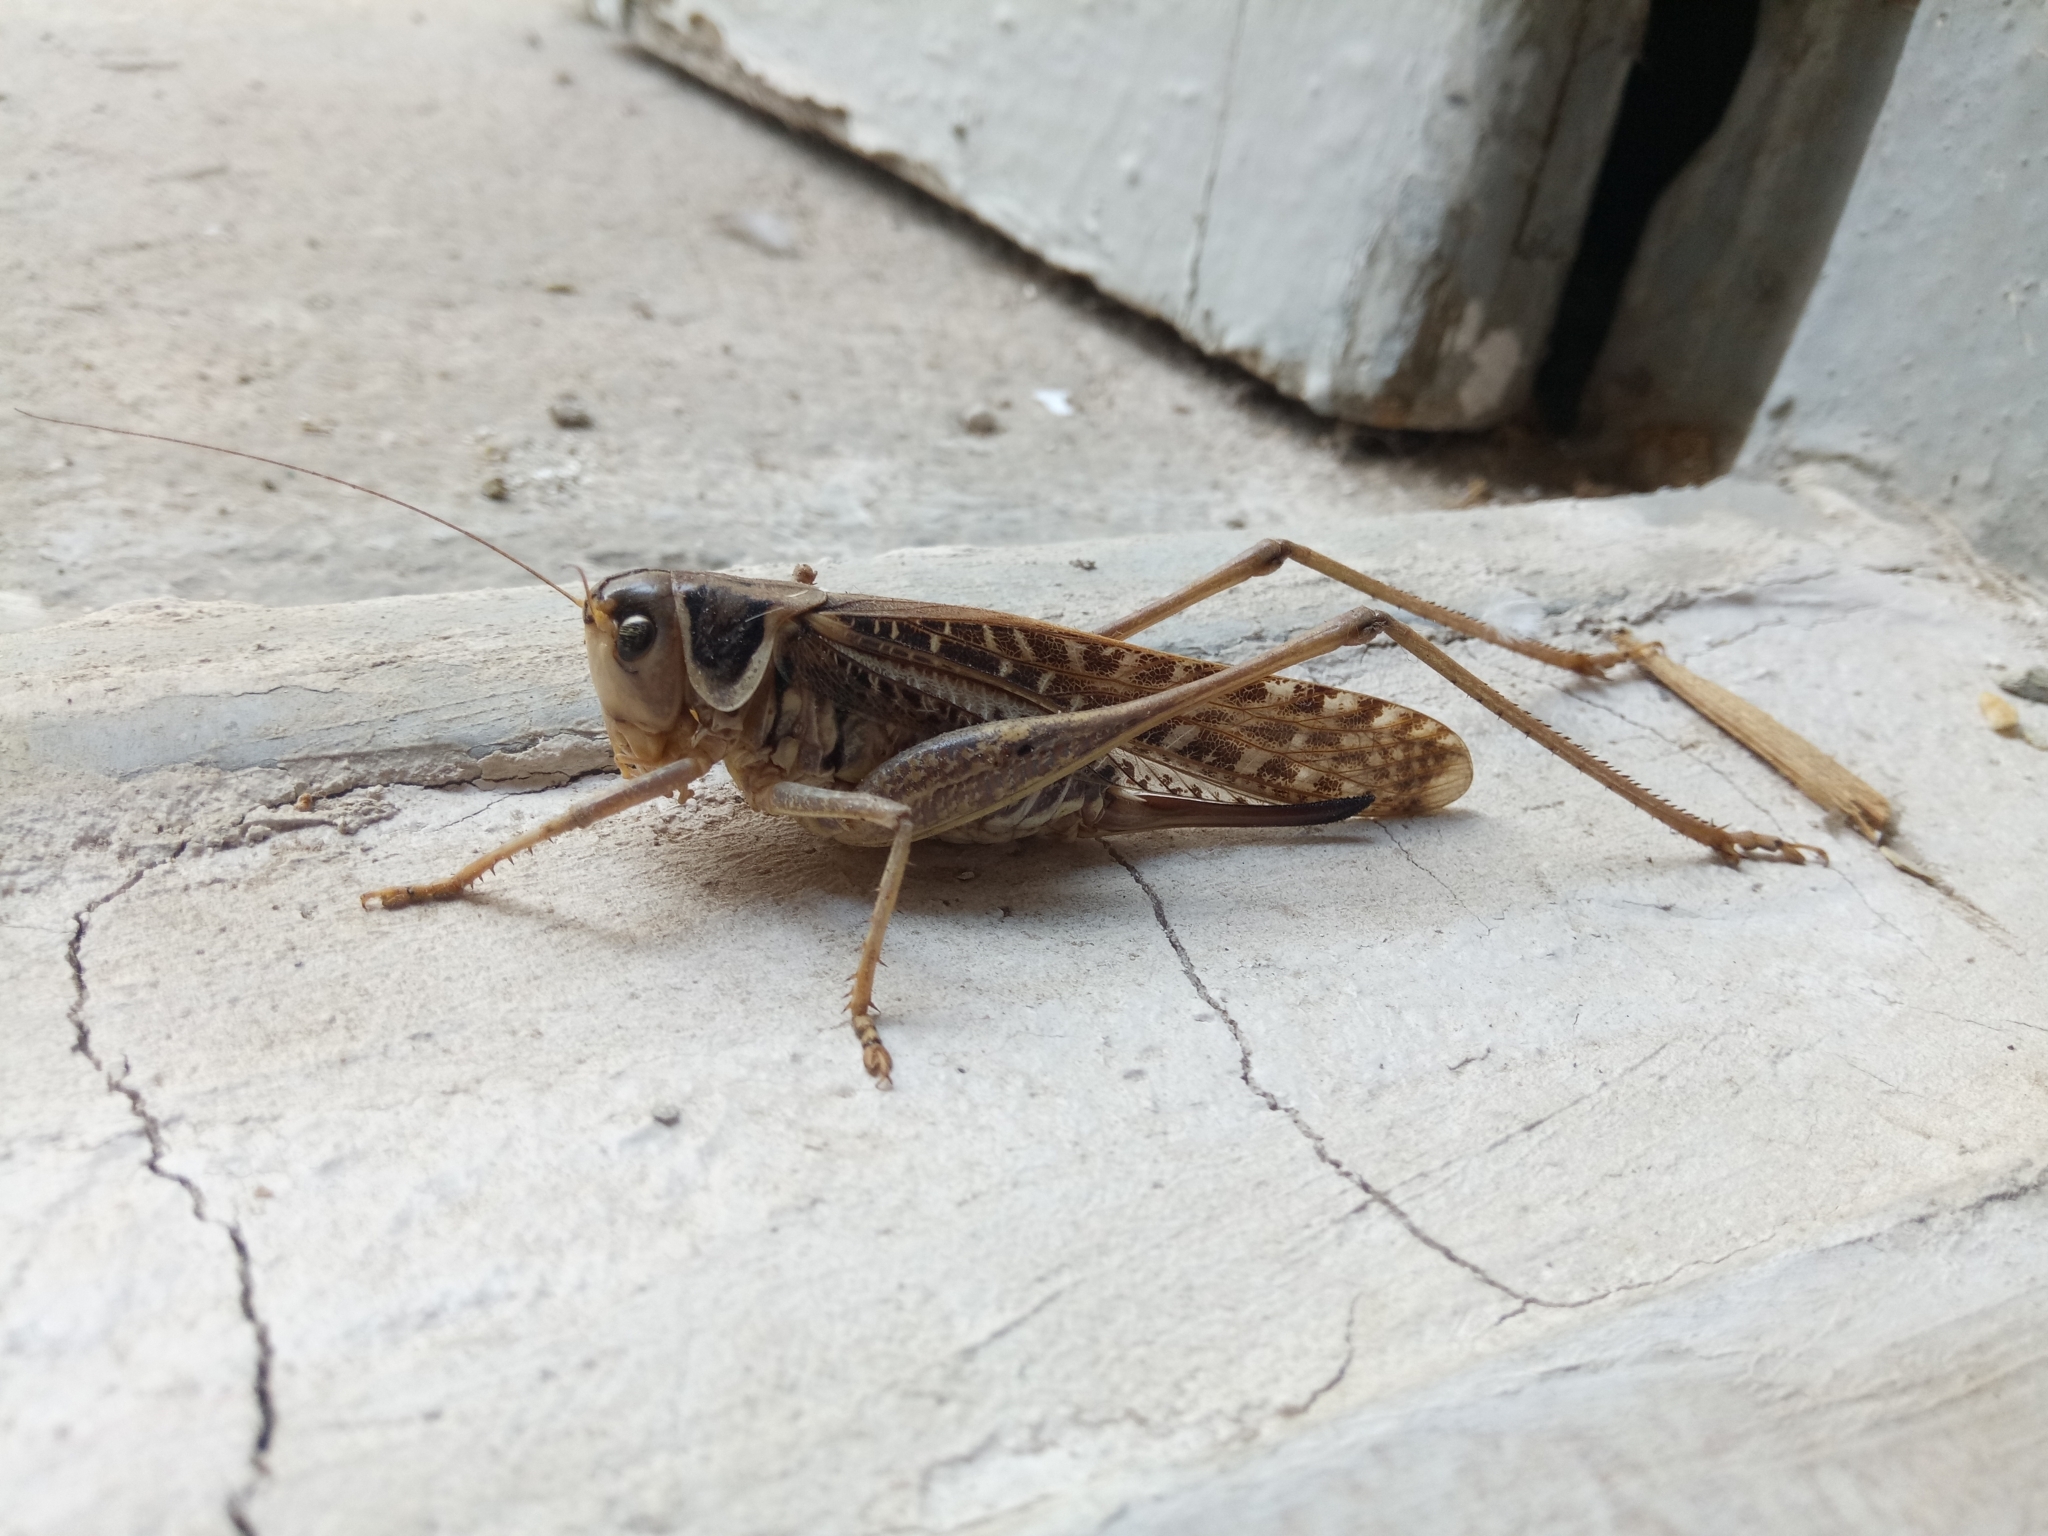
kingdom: Animalia
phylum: Arthropoda
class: Insecta
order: Orthoptera
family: Tettigoniidae
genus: Decticus
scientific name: Decticus albifrons
